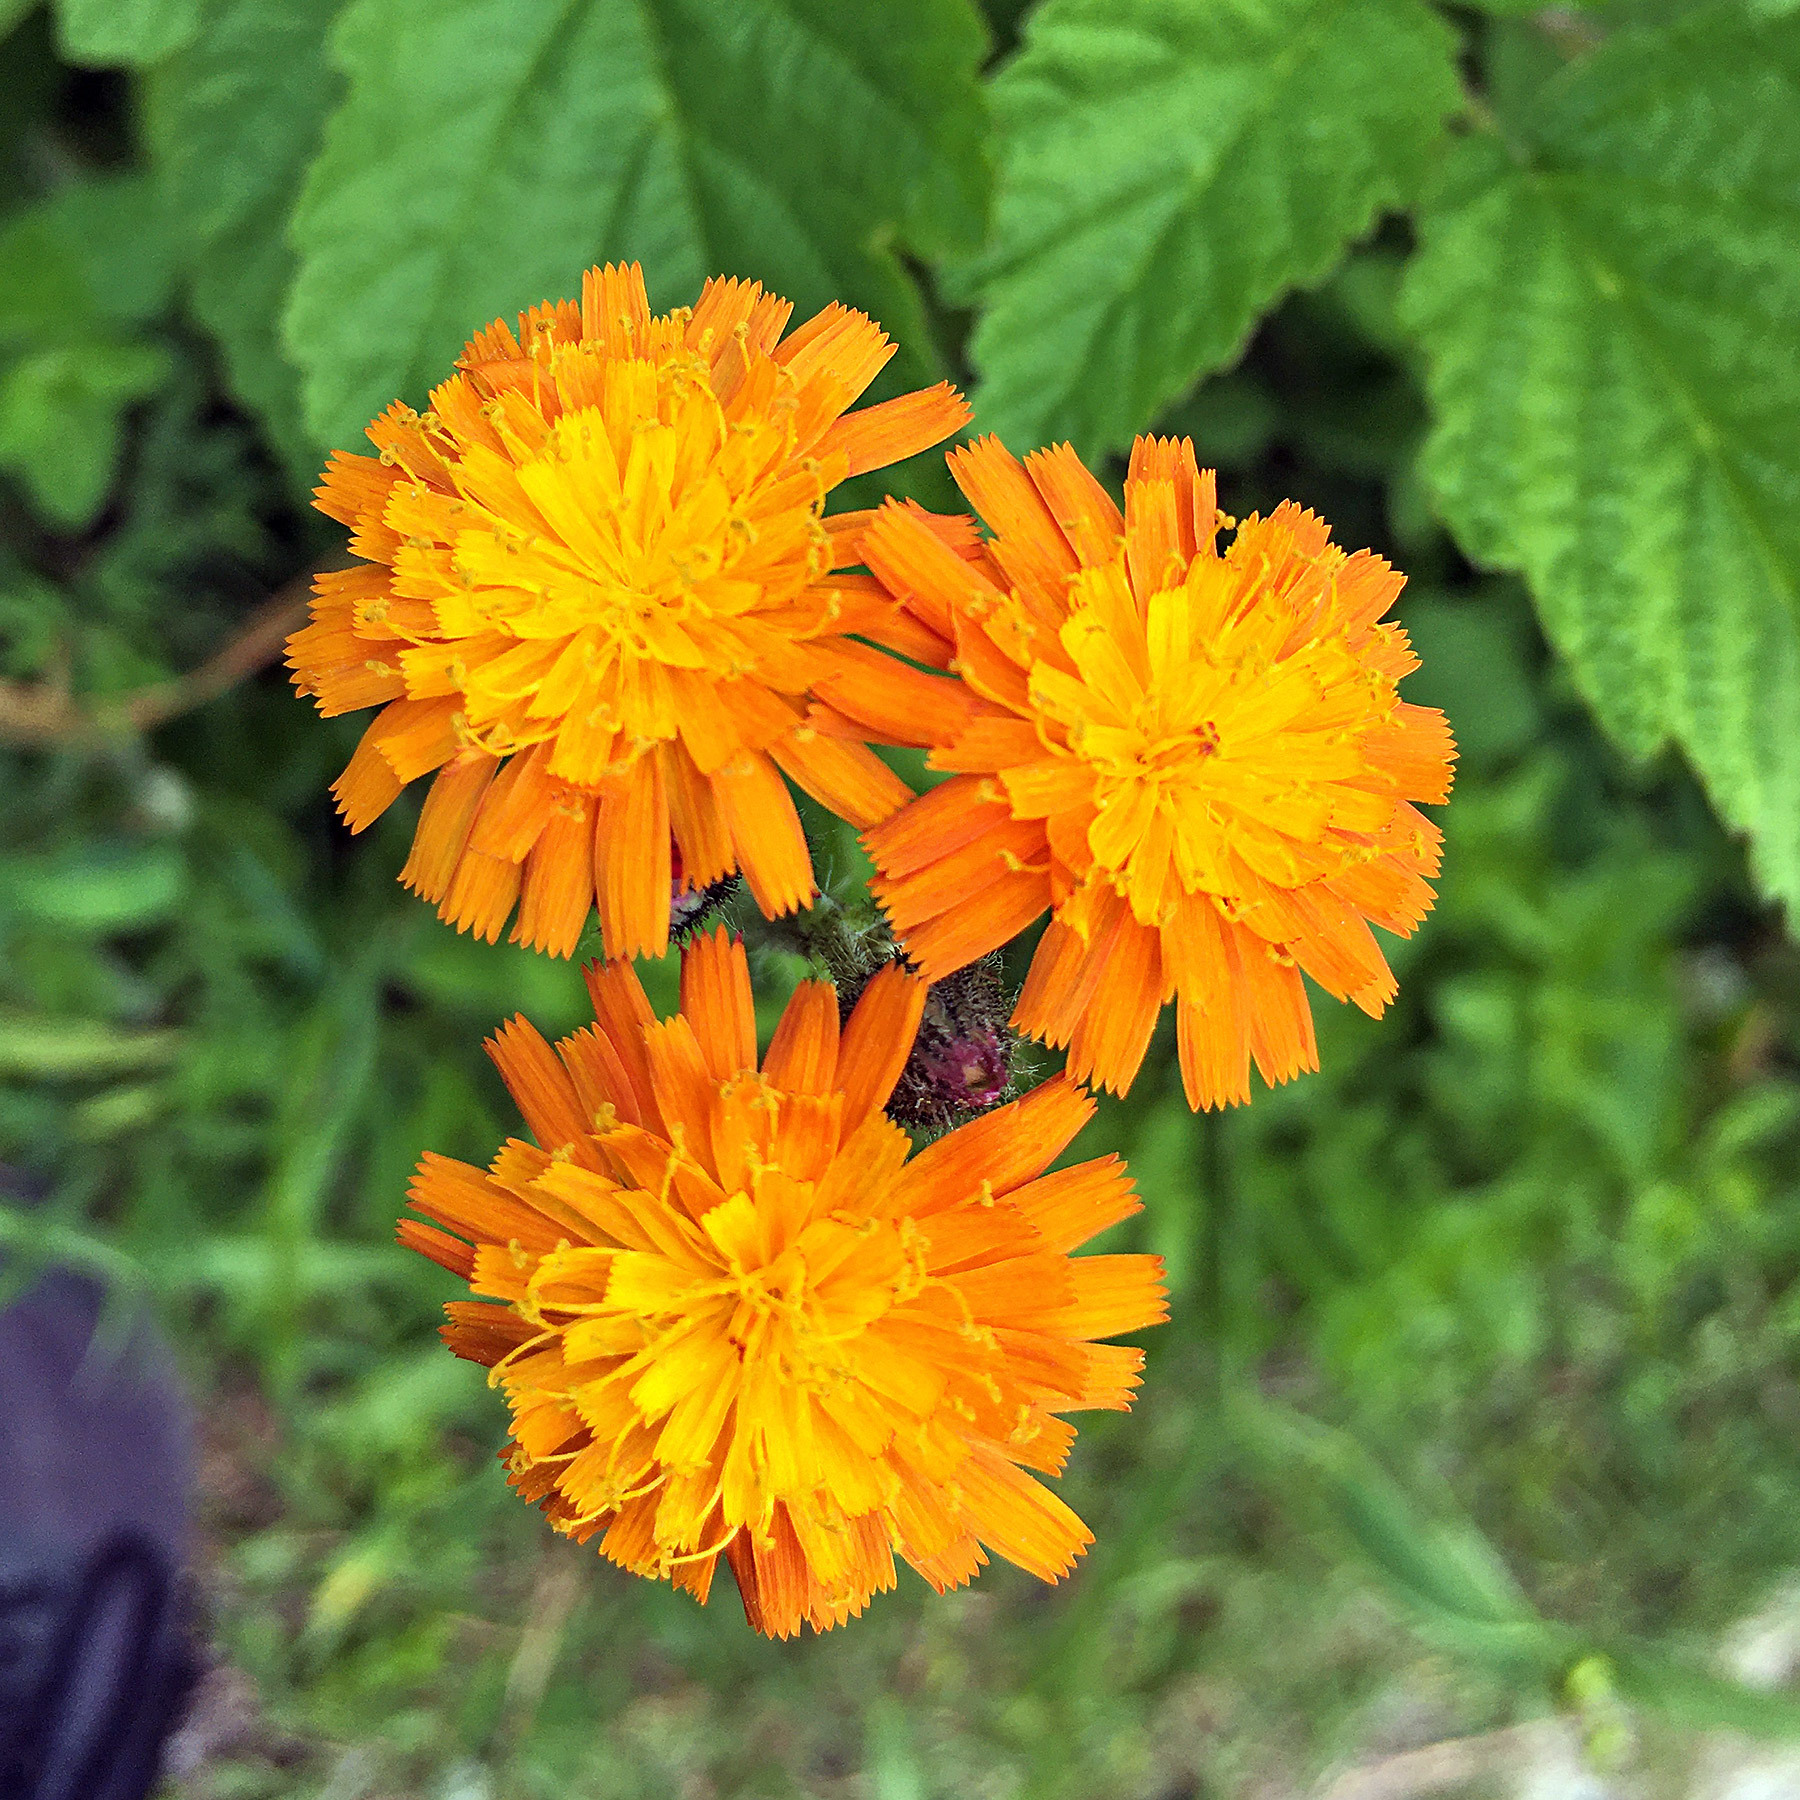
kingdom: Plantae
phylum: Tracheophyta
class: Magnoliopsida
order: Asterales
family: Asteraceae
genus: Pilosella
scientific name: Pilosella aurantiaca
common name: Fox-and-cubs
